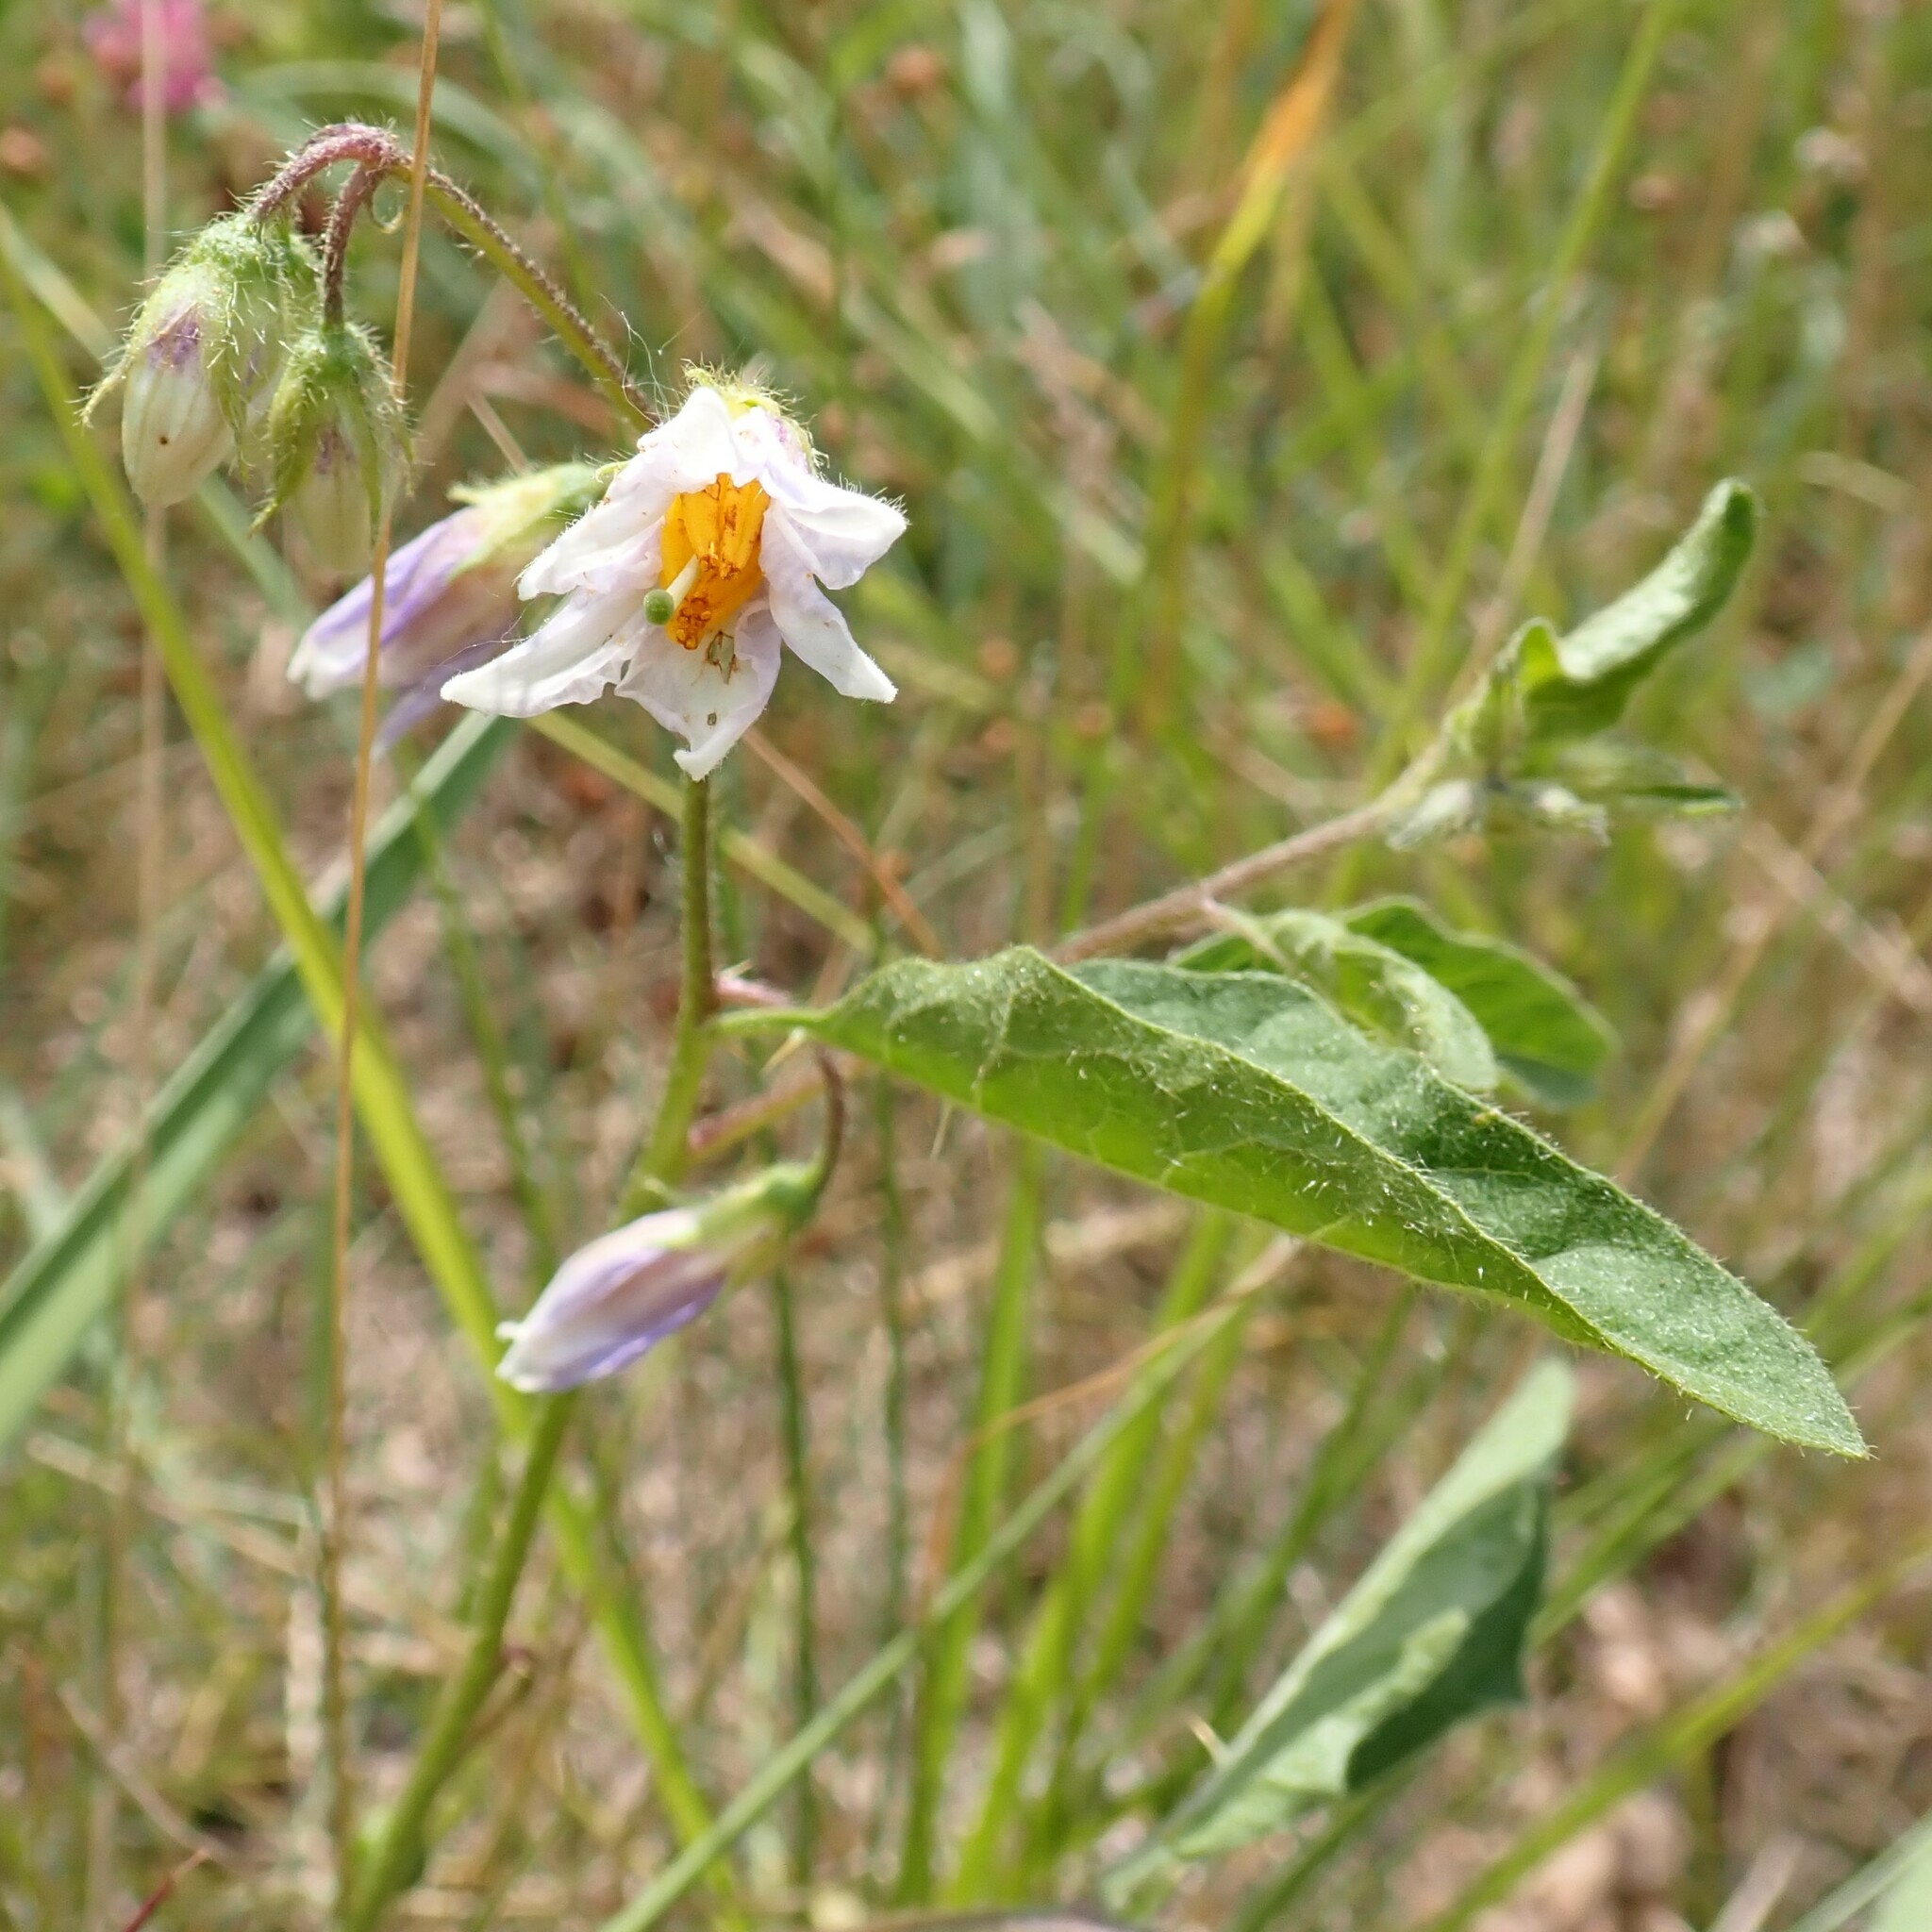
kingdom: Plantae
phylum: Tracheophyta
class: Magnoliopsida
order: Solanales
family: Solanaceae
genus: Solanum
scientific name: Solanum carolinense
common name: Horse-nettle
